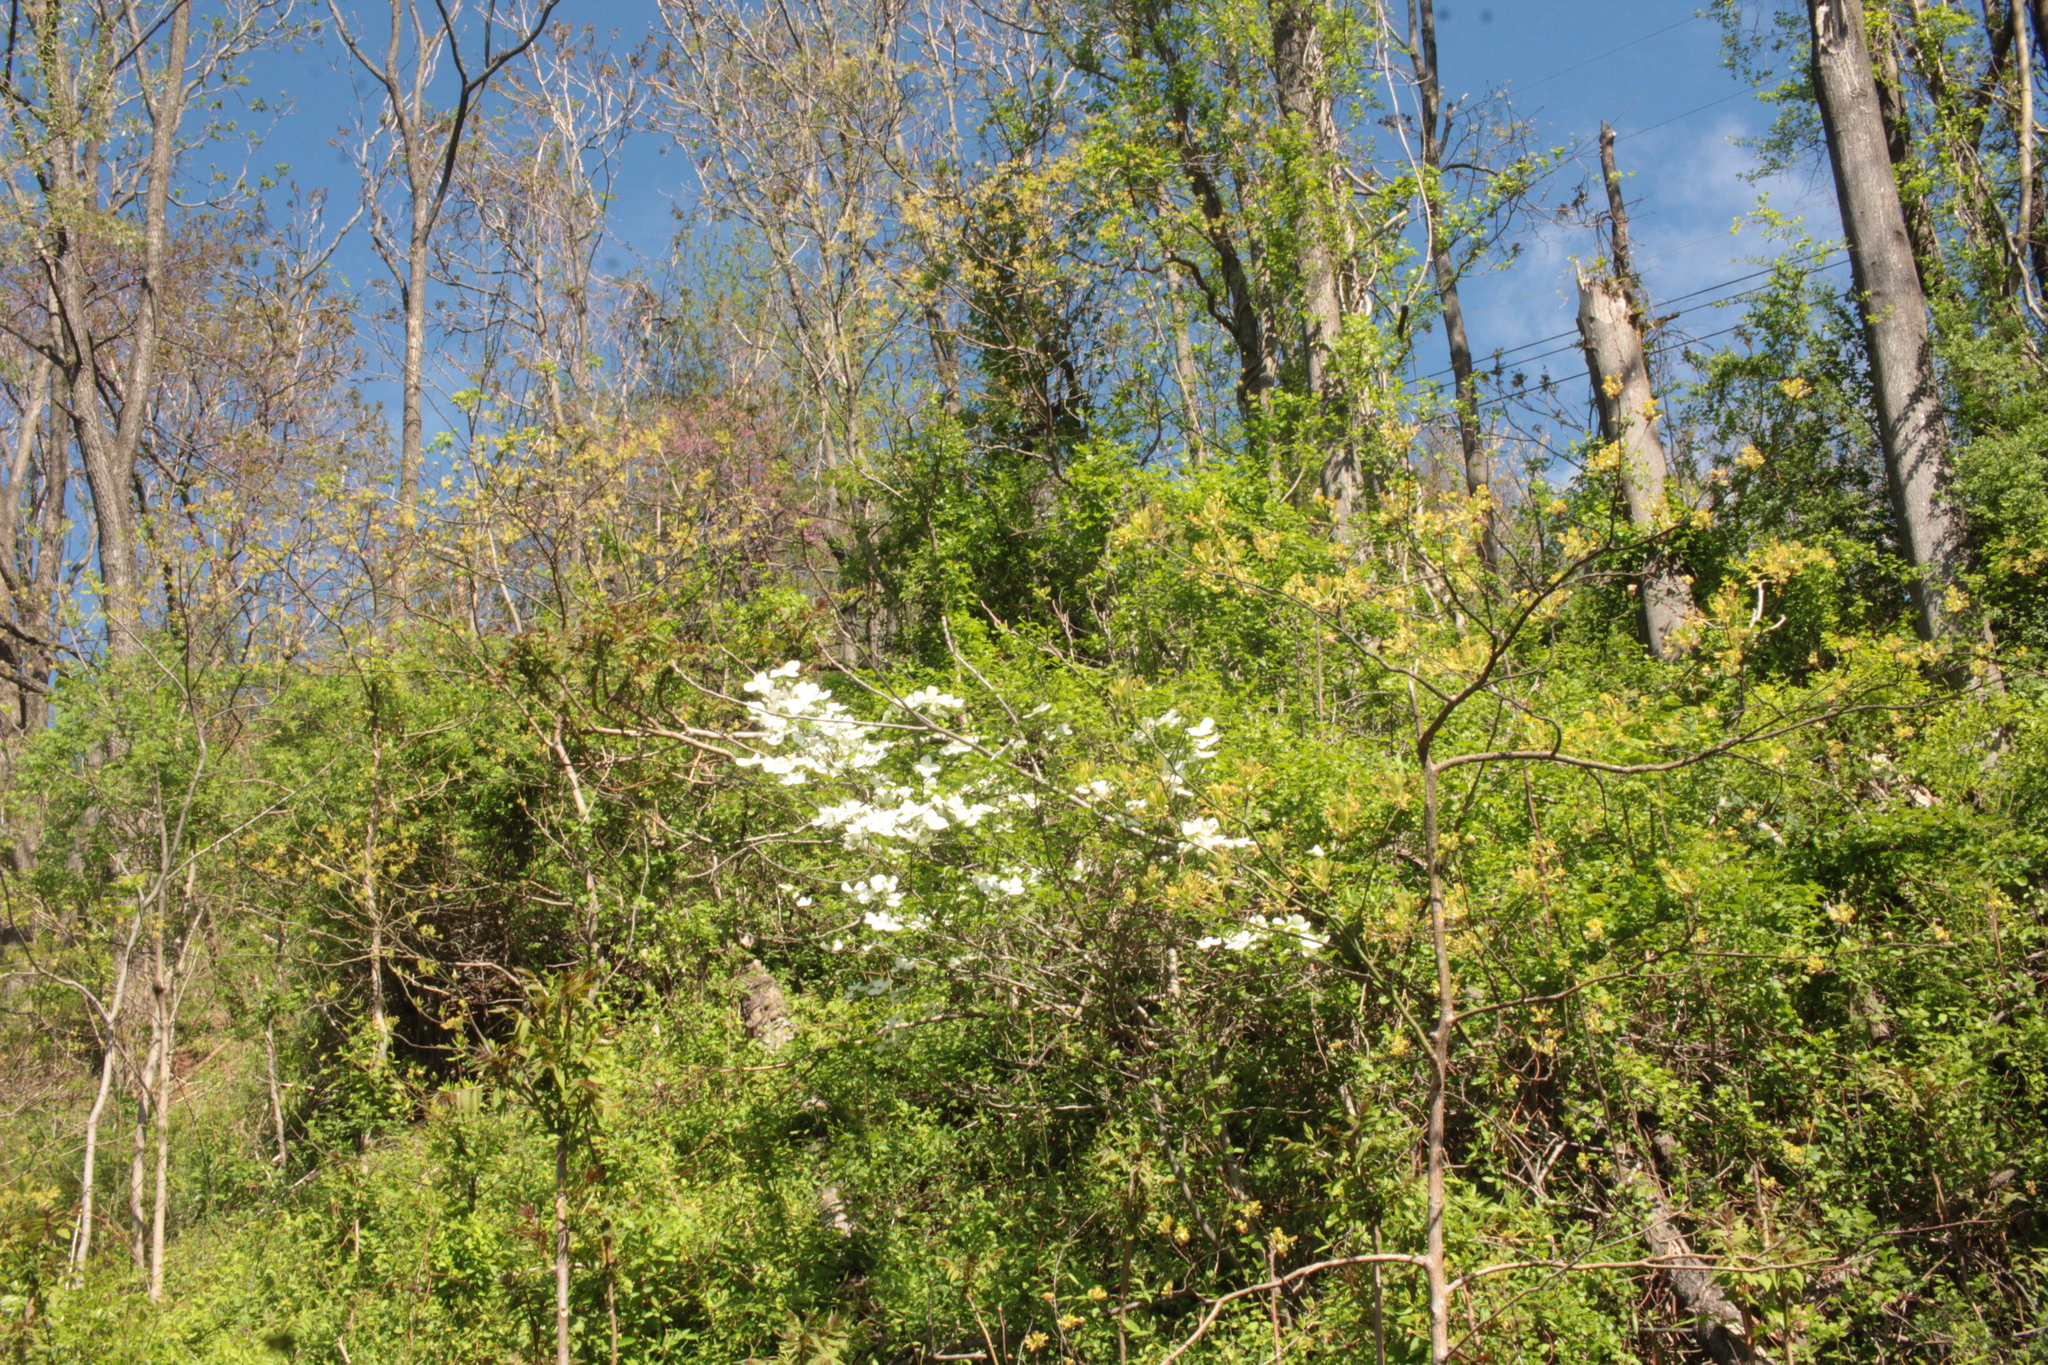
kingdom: Plantae
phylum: Tracheophyta
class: Magnoliopsida
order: Cornales
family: Cornaceae
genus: Cornus
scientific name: Cornus florida
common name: Flowering dogwood
